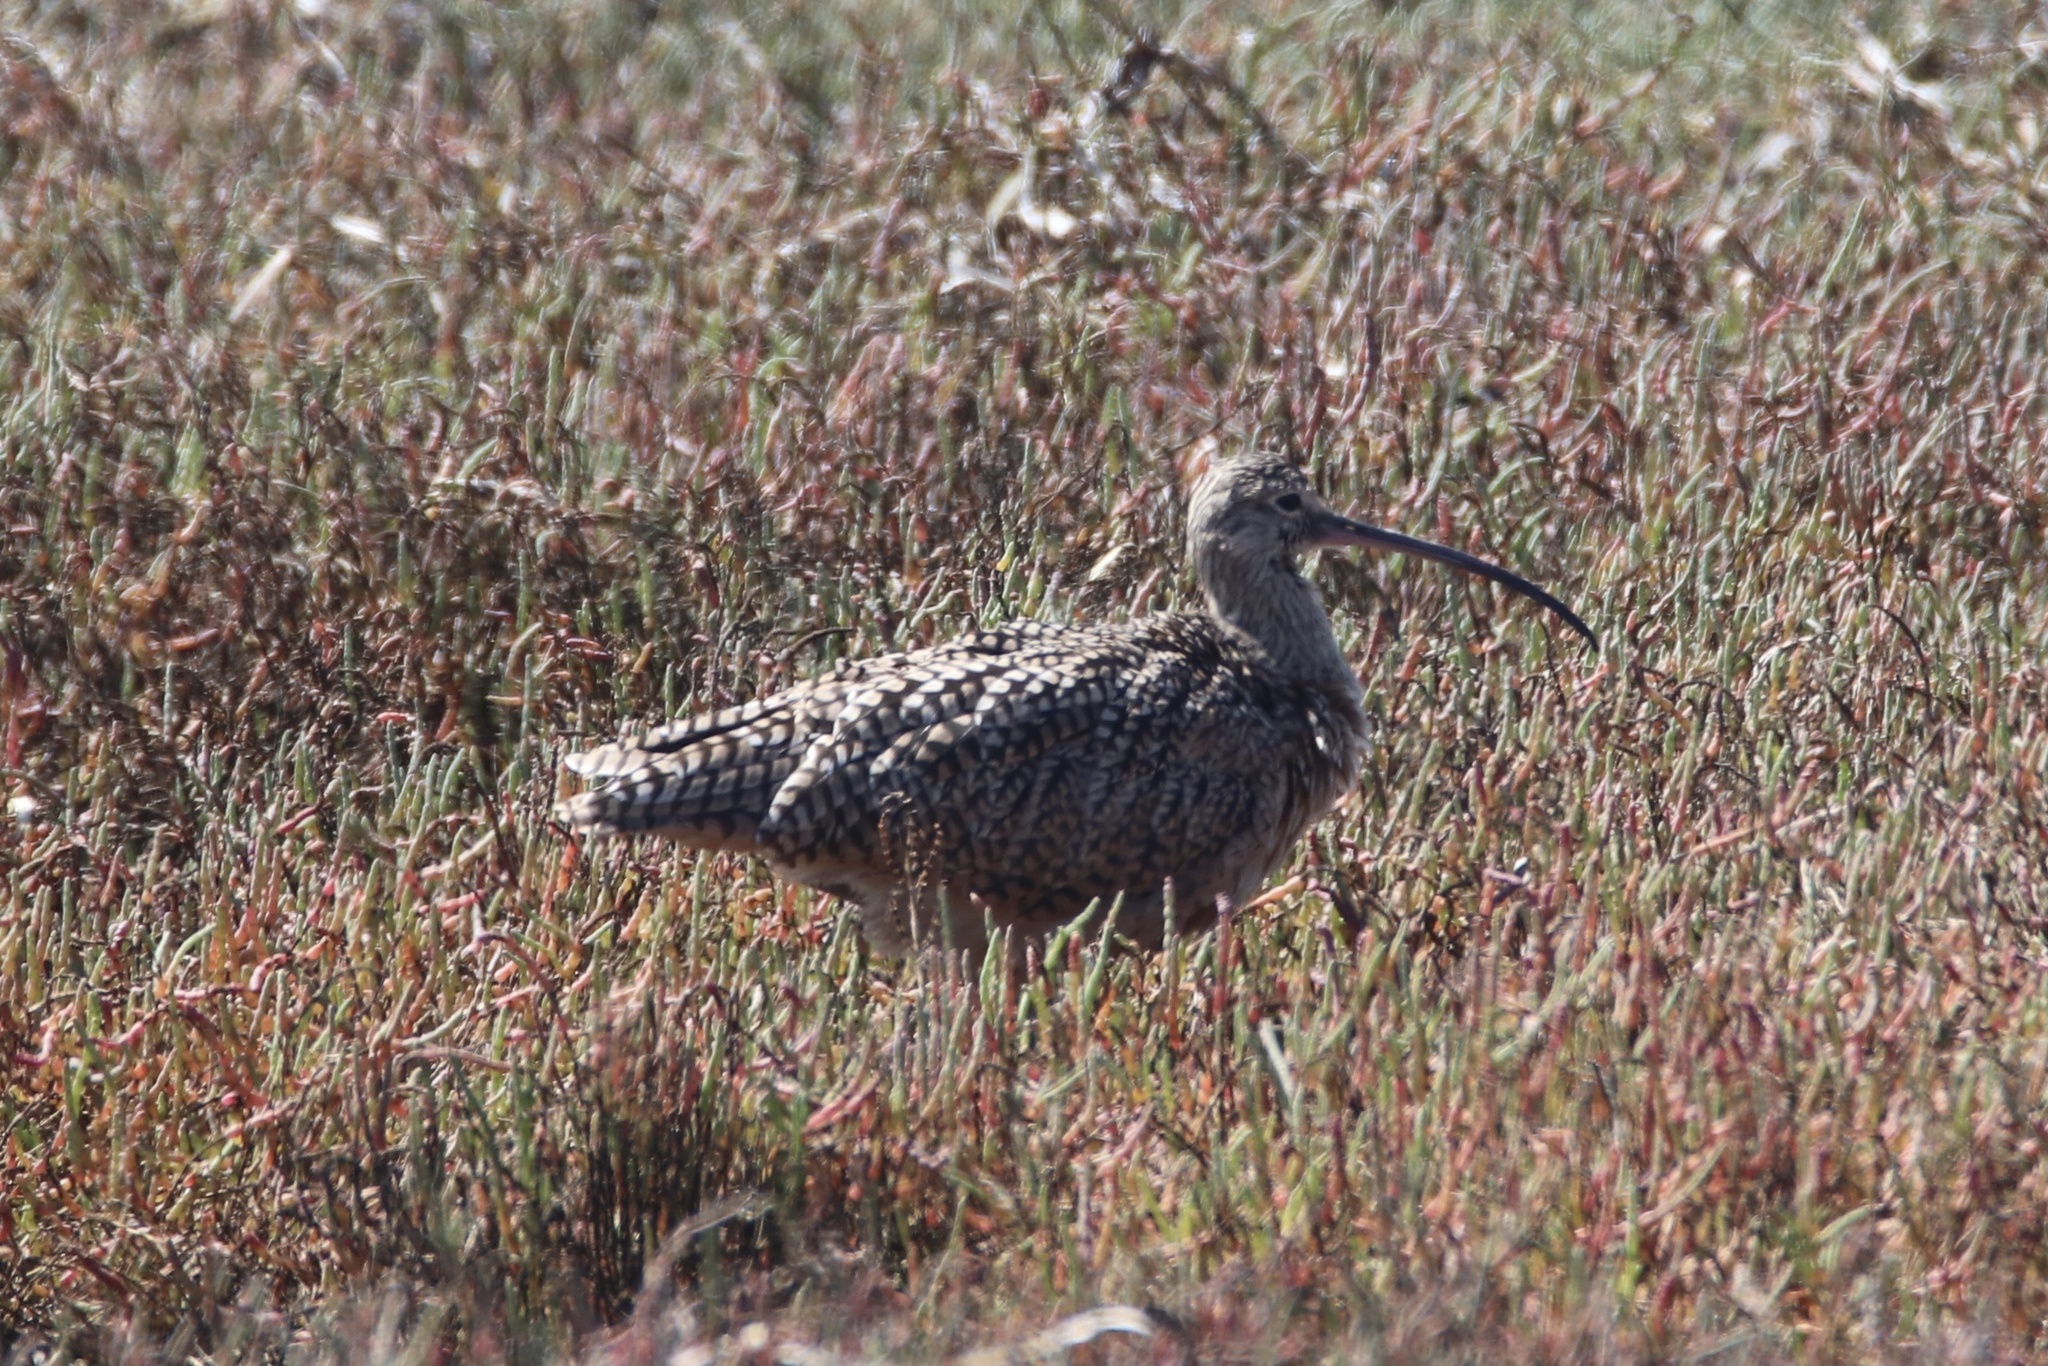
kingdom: Animalia
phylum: Chordata
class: Aves
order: Charadriiformes
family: Scolopacidae
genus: Numenius
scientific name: Numenius americanus
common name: Long-billed curlew
